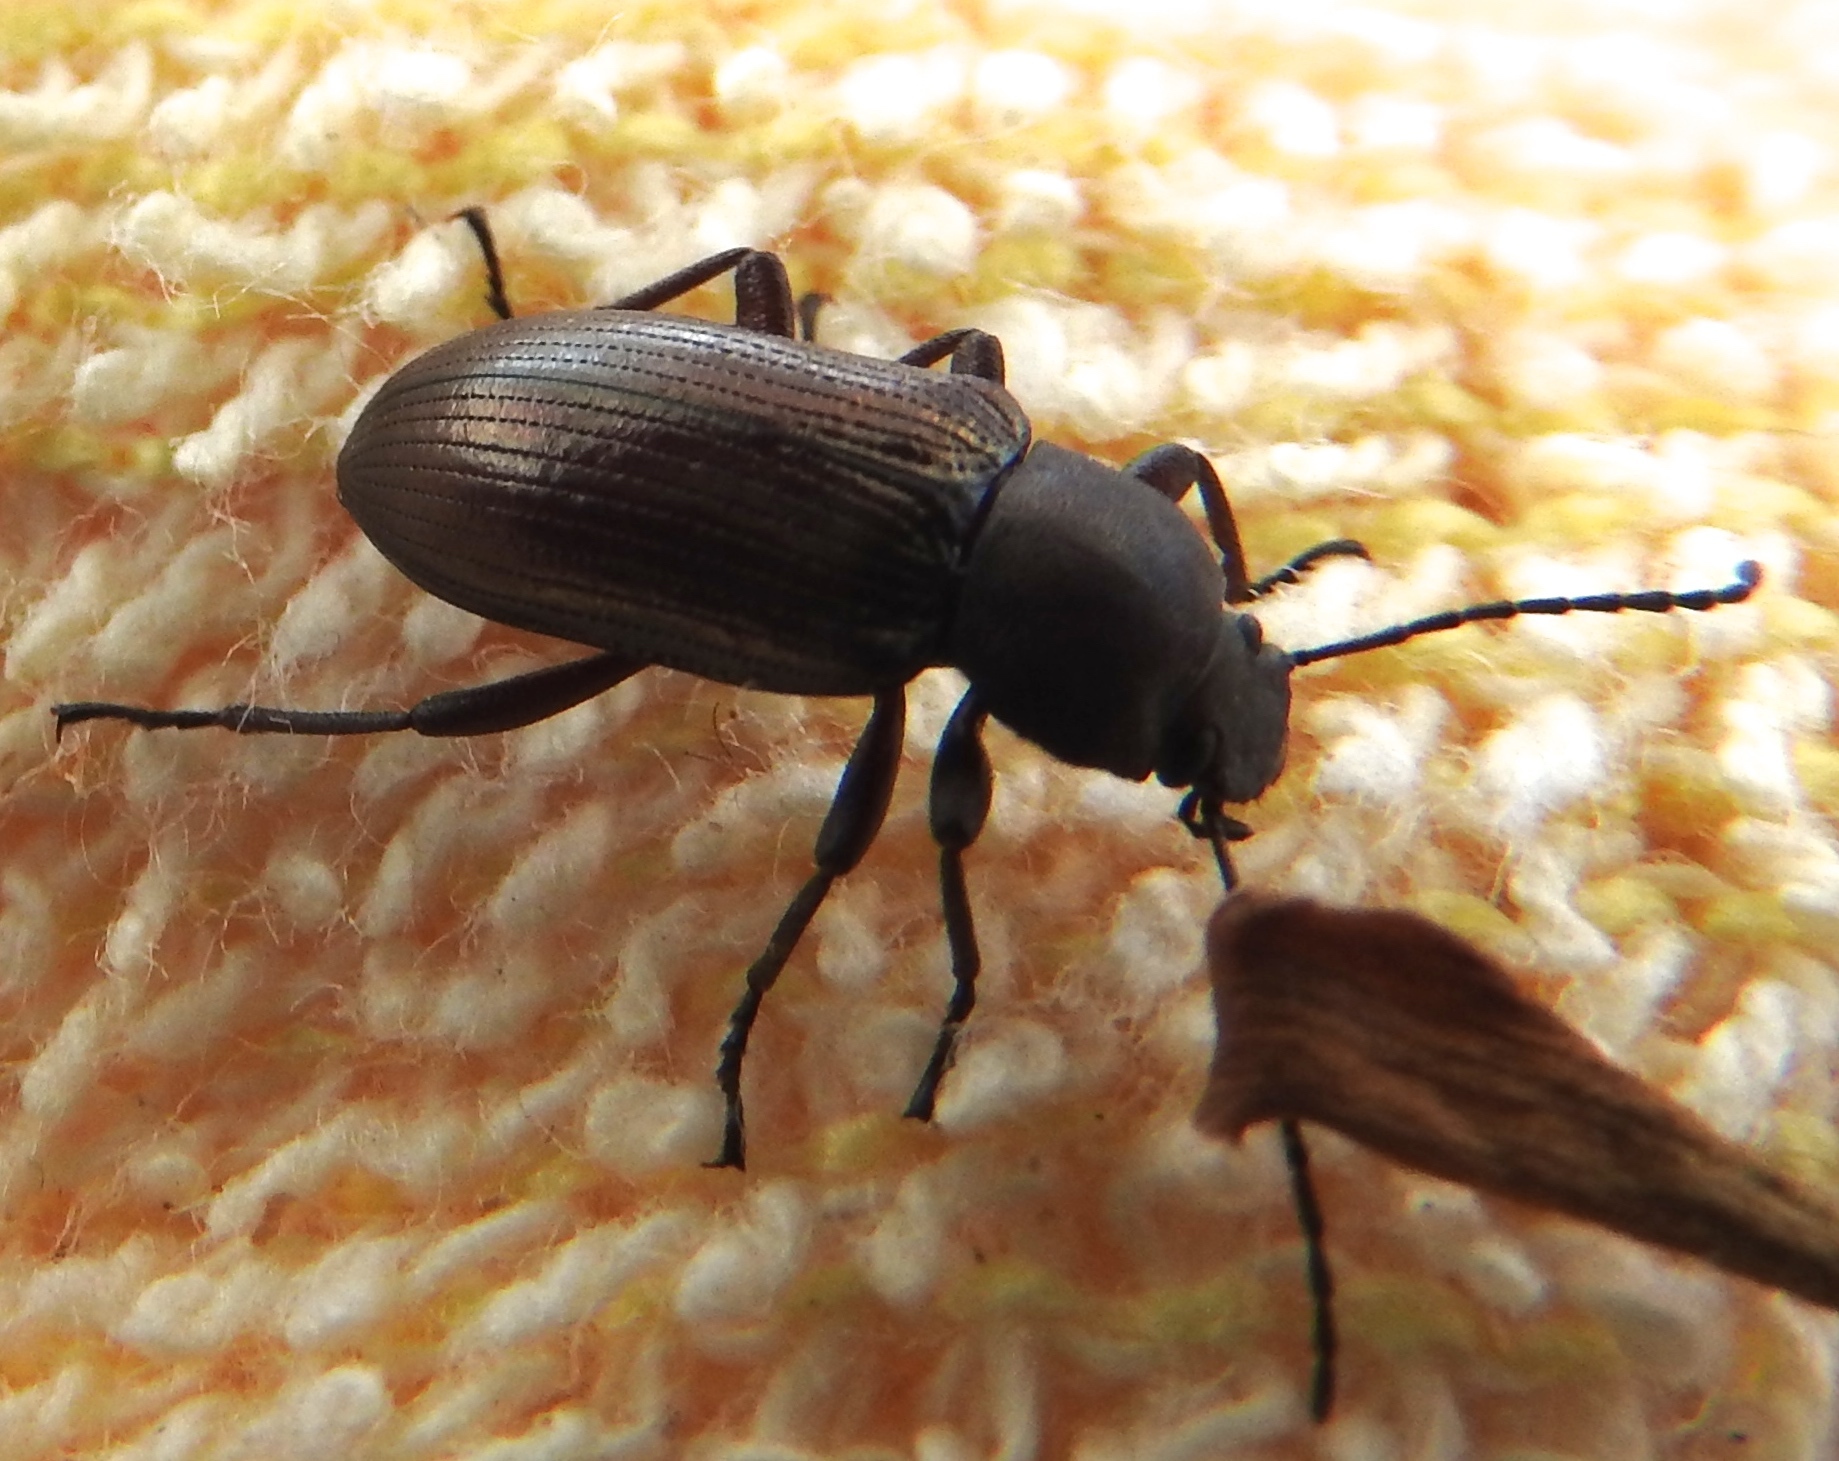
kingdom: Animalia
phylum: Arthropoda
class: Insecta
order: Coleoptera
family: Tenebrionidae
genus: Tarpela
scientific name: Tarpela
